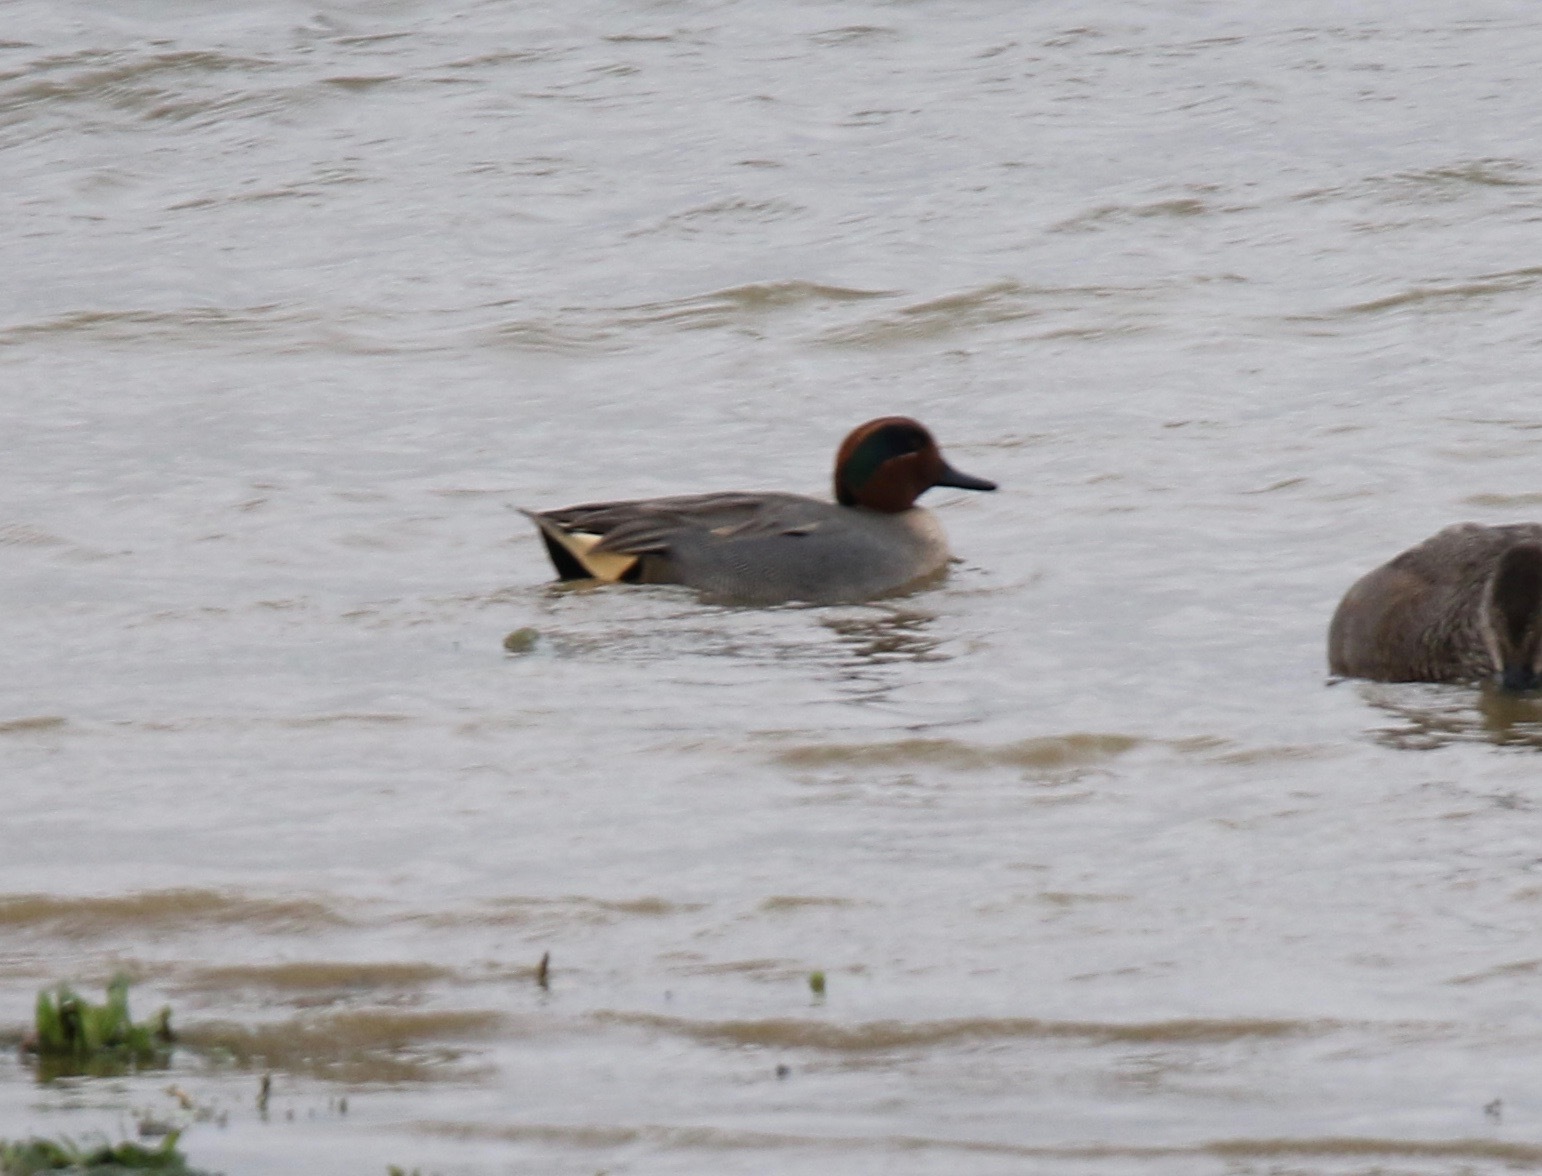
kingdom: Animalia
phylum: Chordata
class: Aves
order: Anseriformes
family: Anatidae
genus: Anas
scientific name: Anas crecca
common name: Eurasian teal
